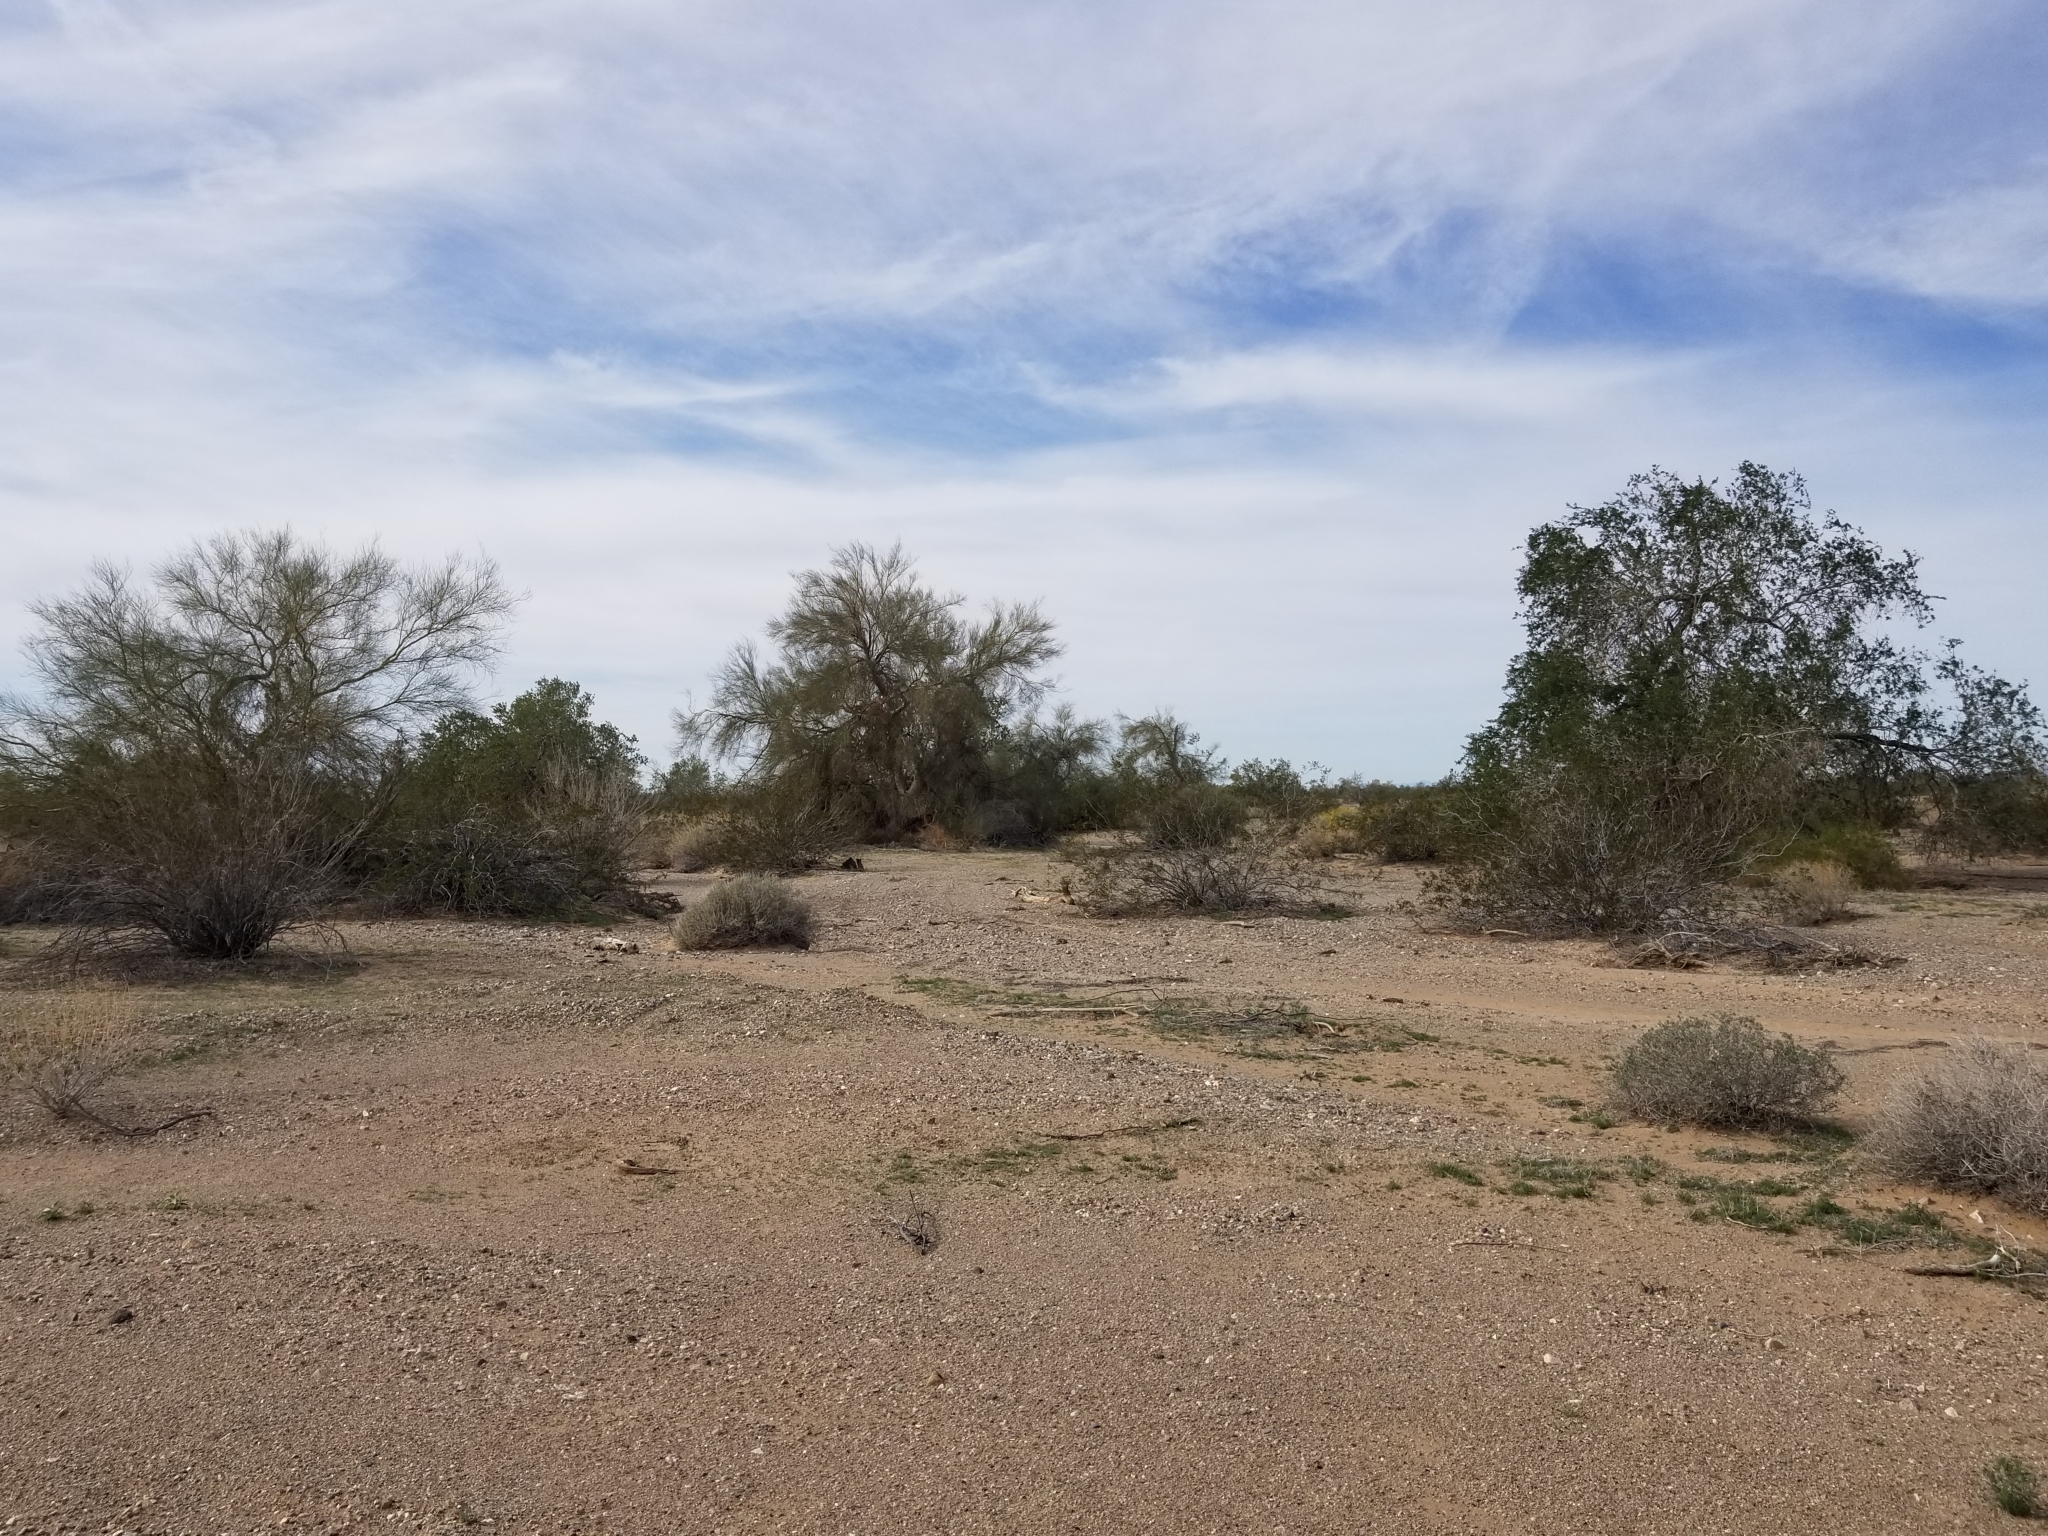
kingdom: Plantae
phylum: Tracheophyta
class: Magnoliopsida
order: Fabales
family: Fabaceae
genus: Olneya
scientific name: Olneya tesota
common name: Desert ironwood
